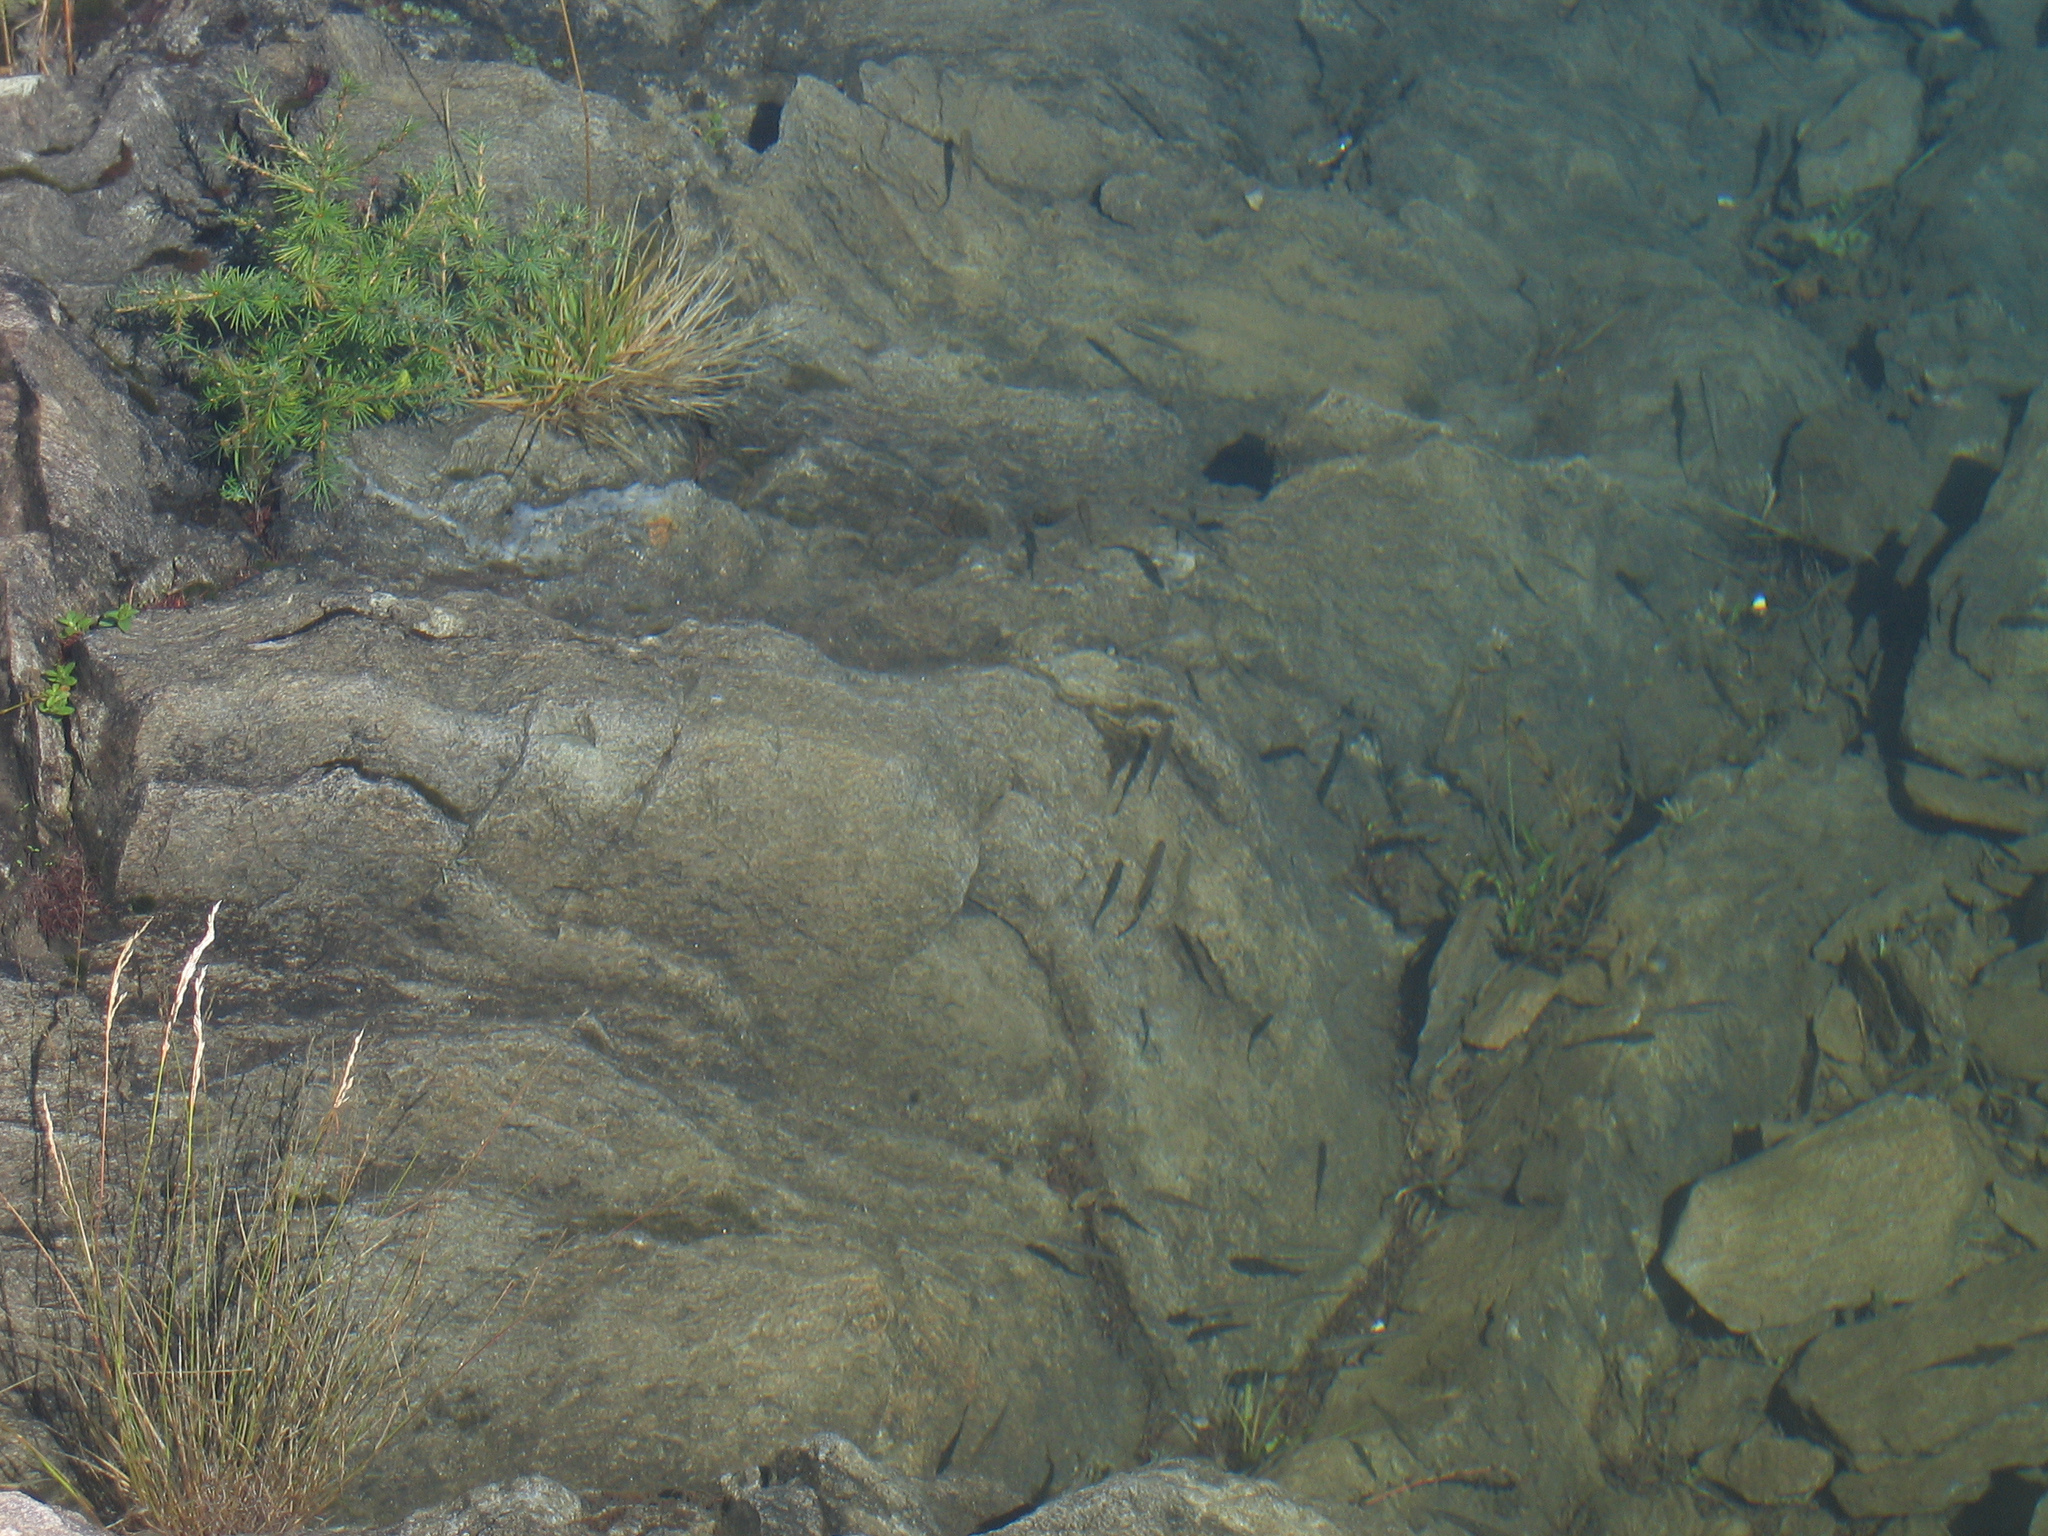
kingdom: Animalia
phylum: Chordata
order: Cypriniformes
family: Cyprinidae
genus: Phoxinus
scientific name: Phoxinus
